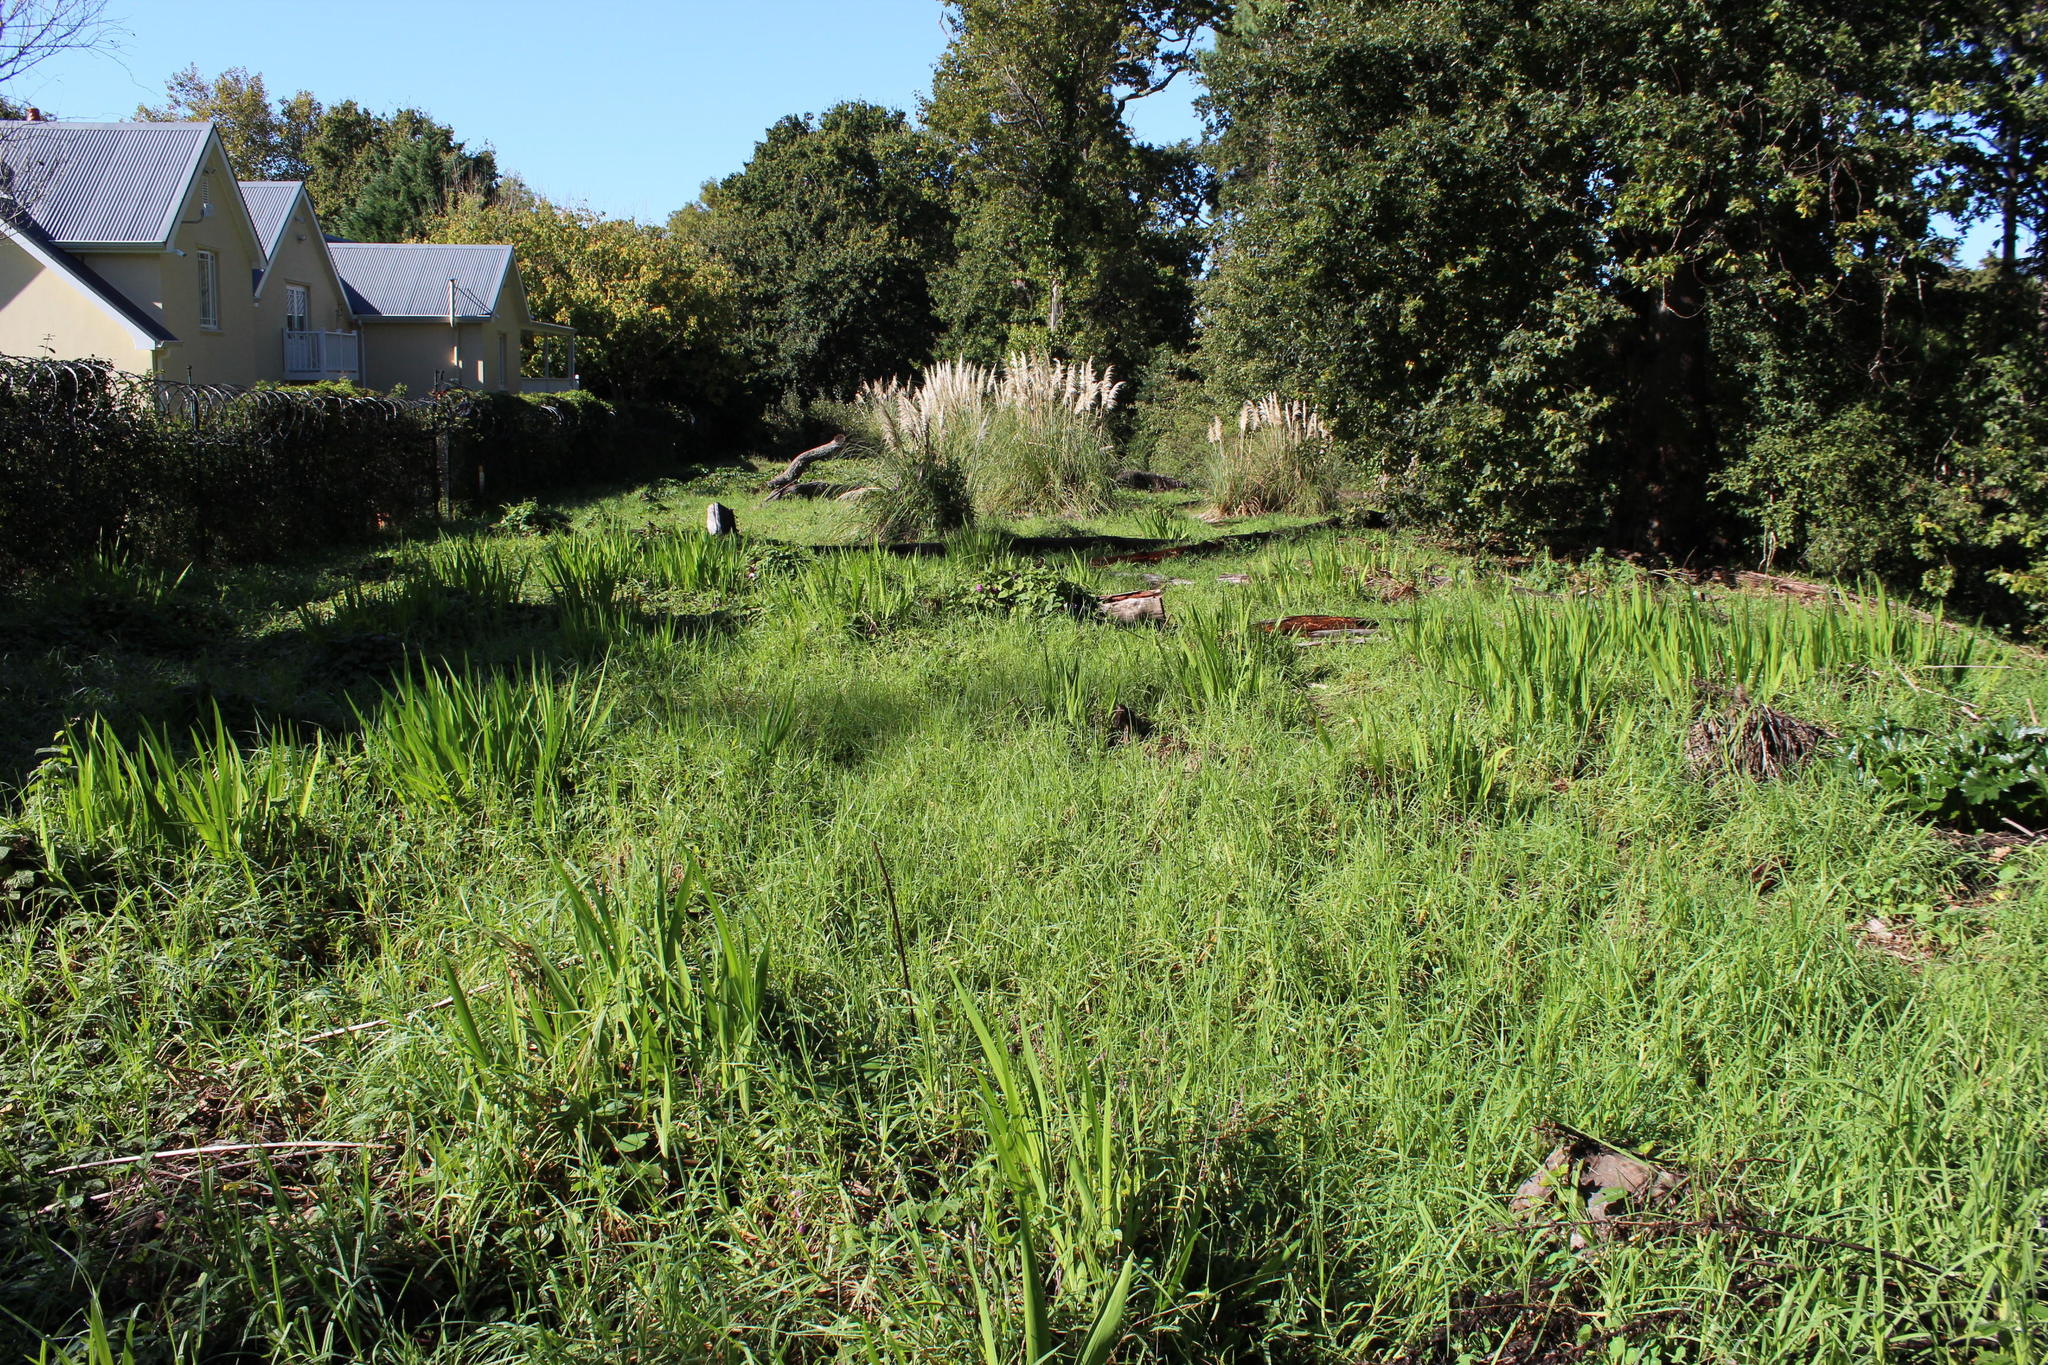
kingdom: Plantae
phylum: Tracheophyta
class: Liliopsida
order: Poales
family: Poaceae
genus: Cenchrus
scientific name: Cenchrus clandestinus
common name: Kikuyugrass
